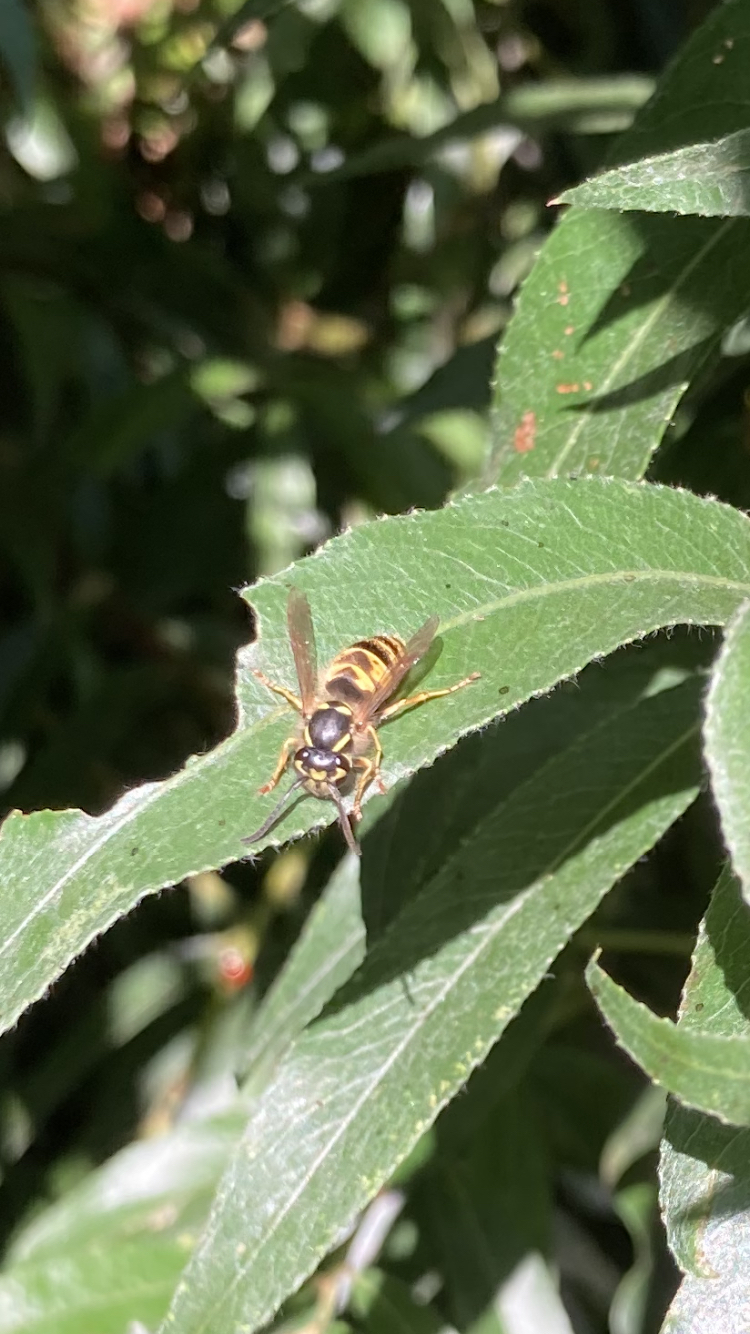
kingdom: Animalia
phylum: Arthropoda
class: Insecta
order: Hymenoptera
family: Vespidae
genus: Vespula
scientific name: Vespula vulgaris
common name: Common wasp
